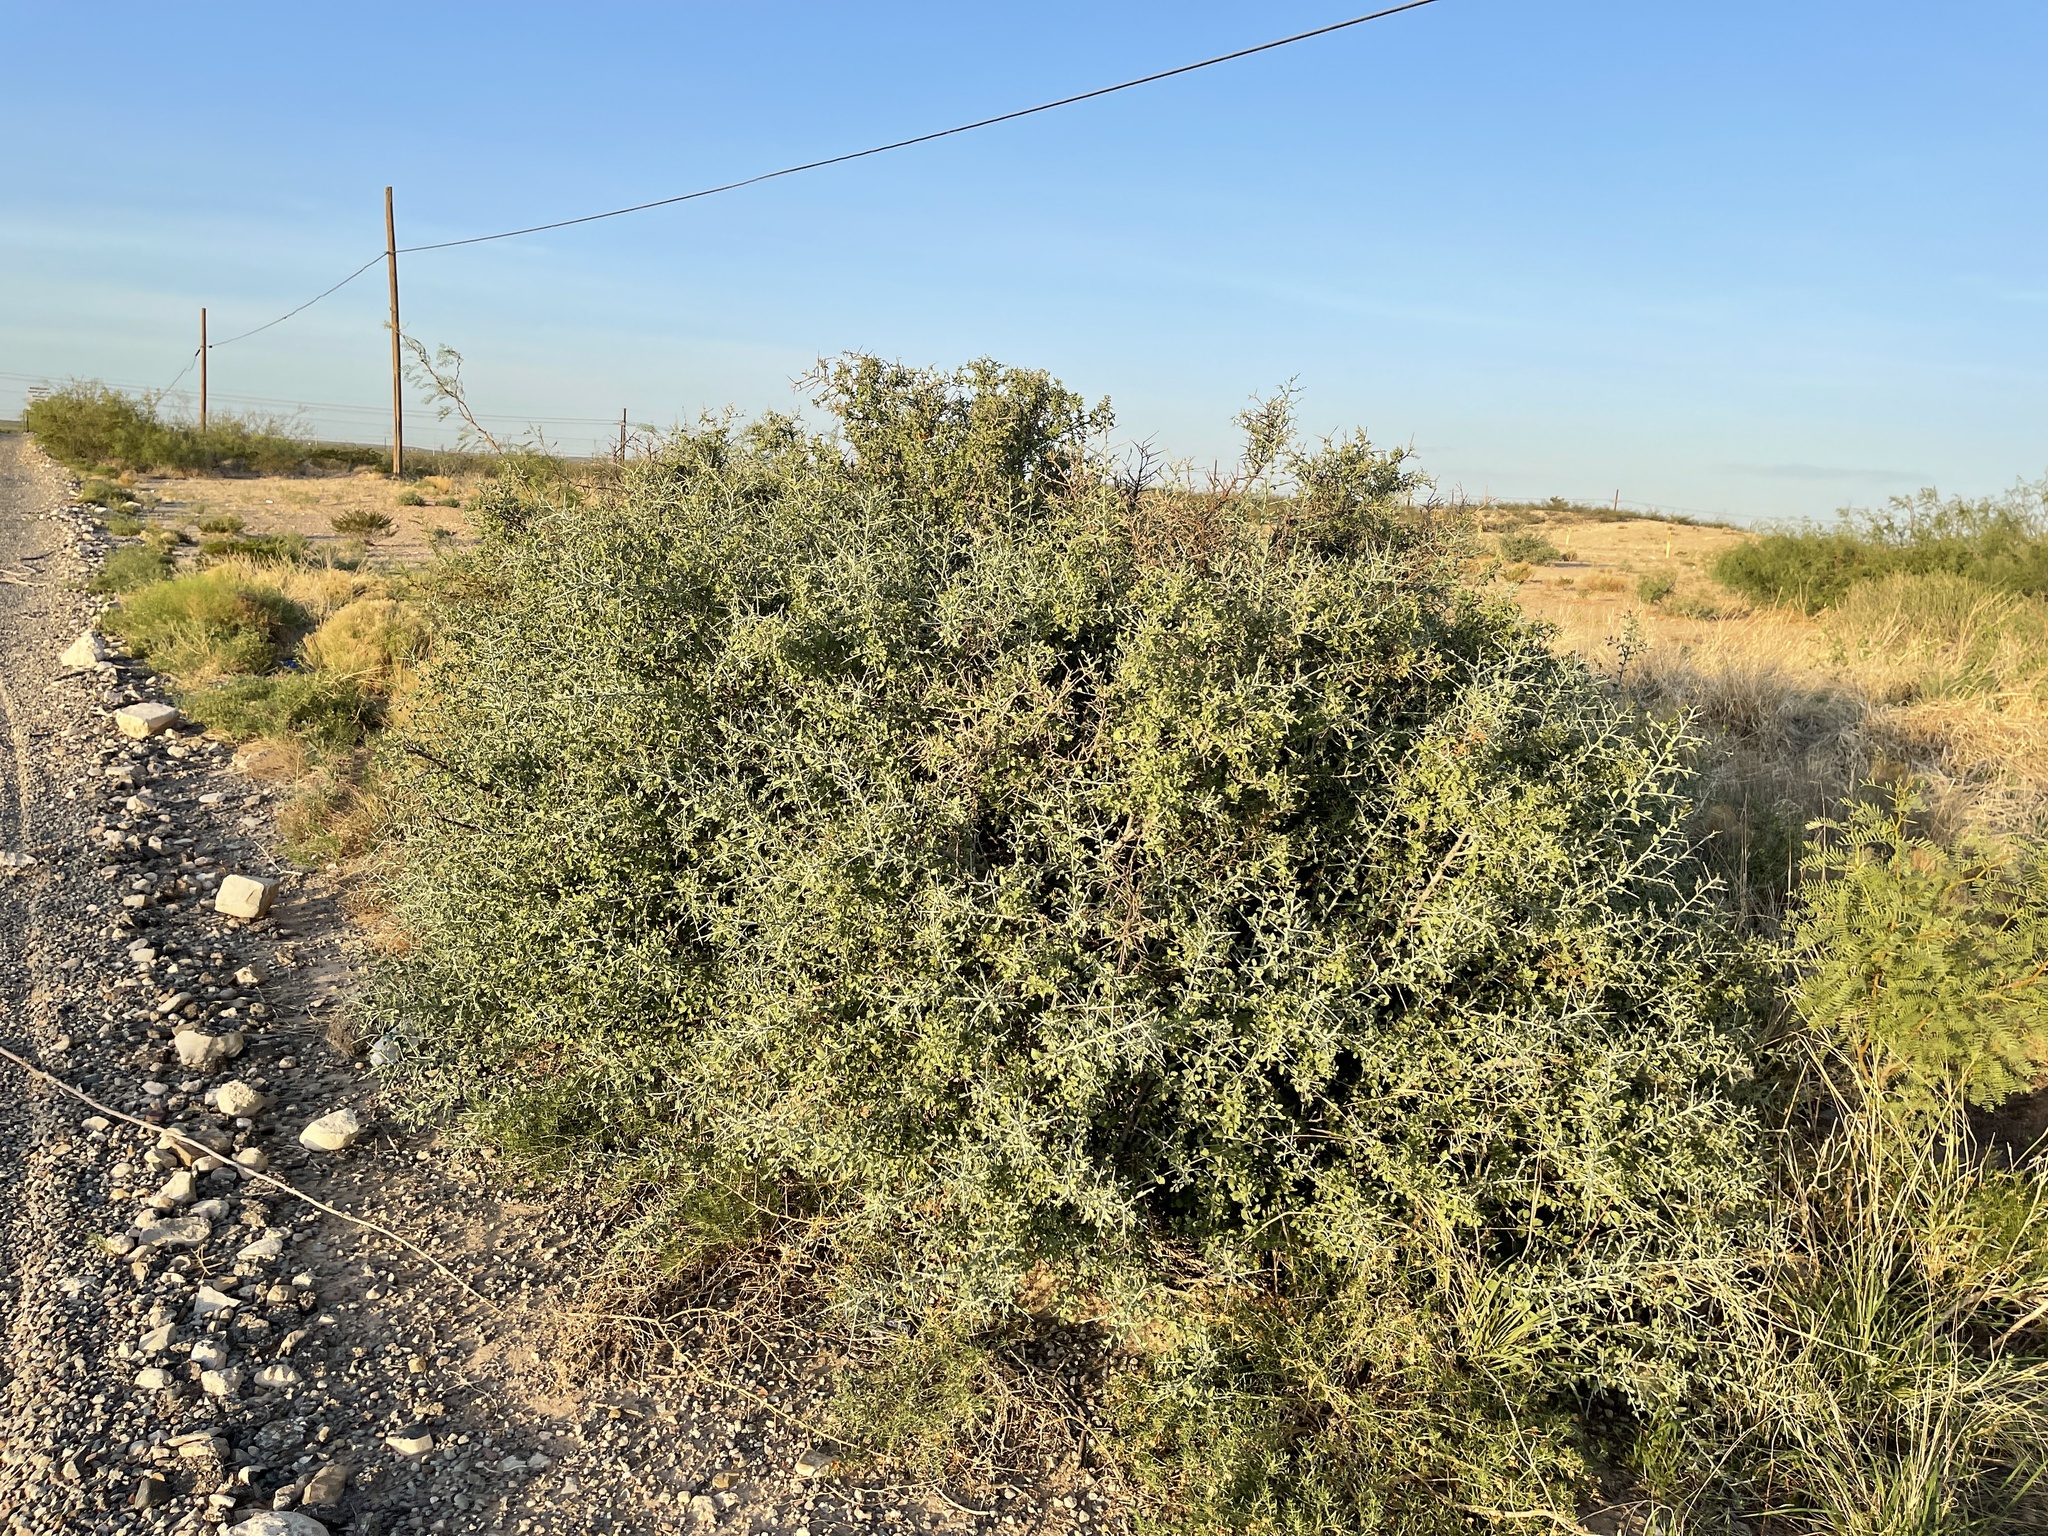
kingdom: Plantae
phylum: Tracheophyta
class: Magnoliopsida
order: Rosales
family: Rhamnaceae
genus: Sarcomphalus
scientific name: Sarcomphalus obtusifolius
